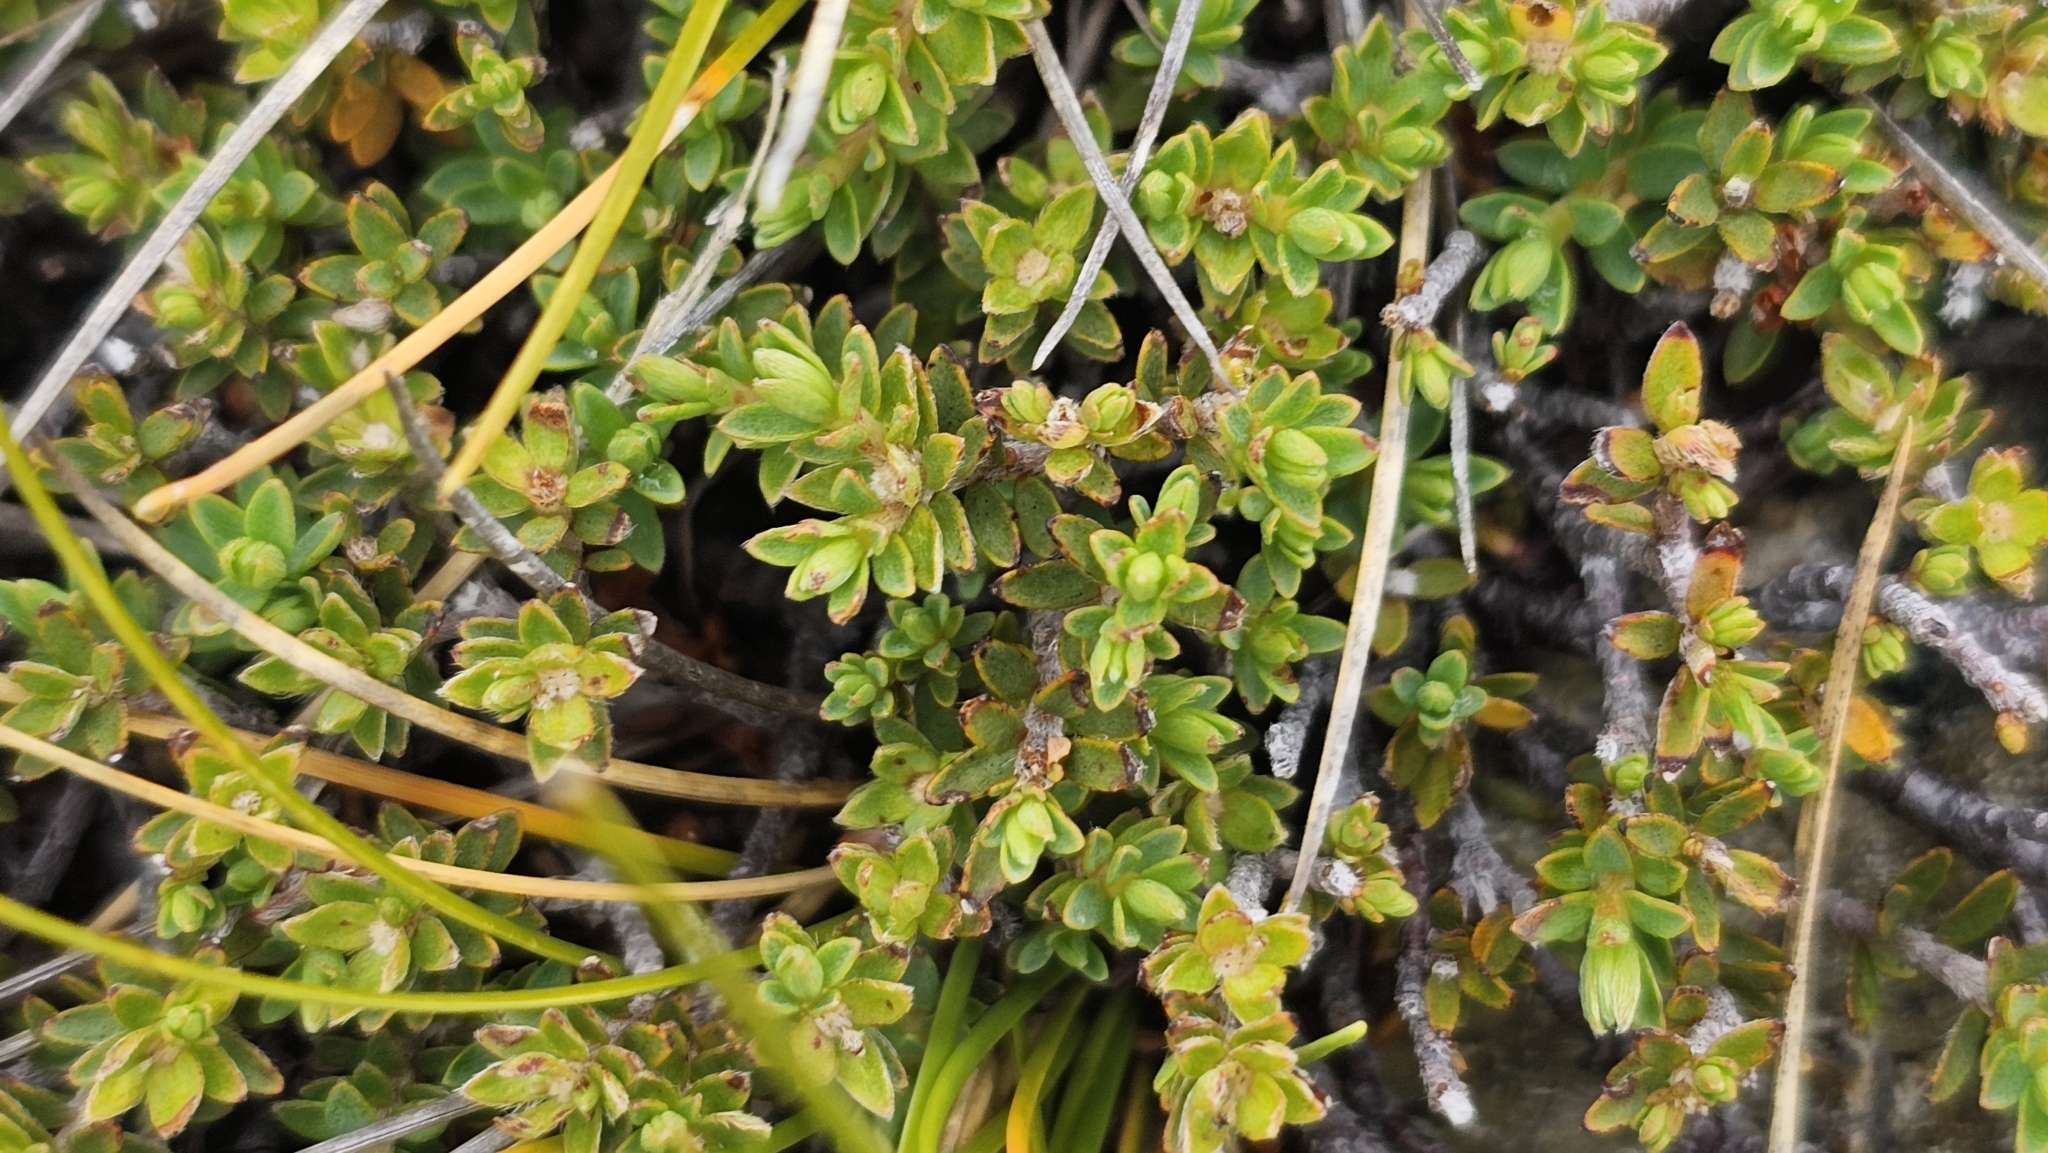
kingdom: Plantae
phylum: Tracheophyta
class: Magnoliopsida
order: Malvales
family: Thymelaeaceae
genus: Pimelea
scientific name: Pimelea oreophila
